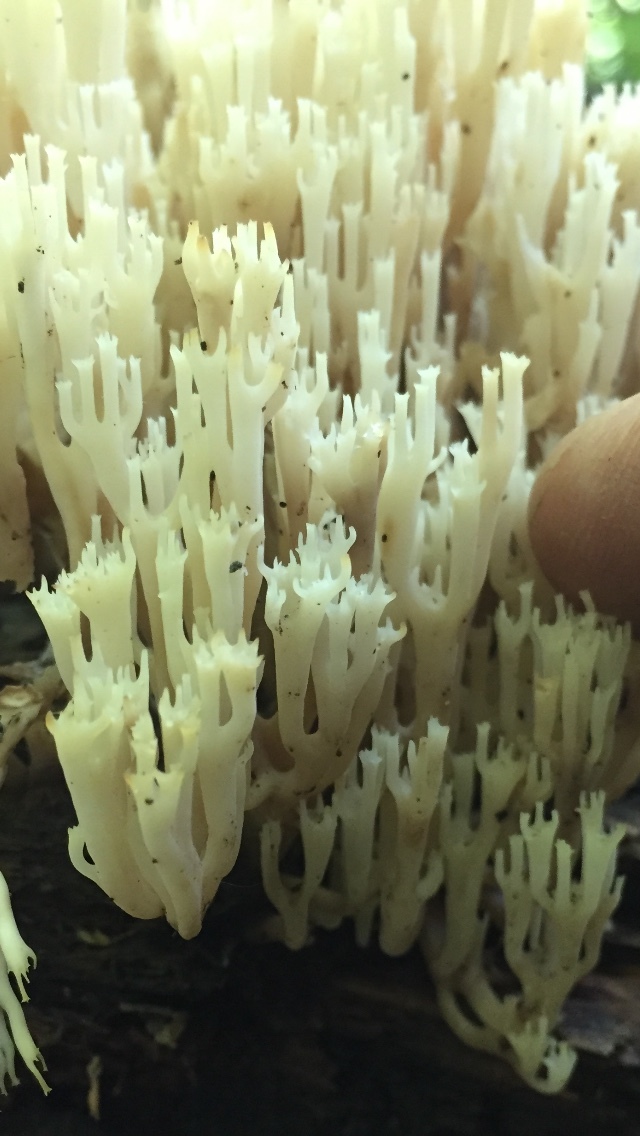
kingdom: Fungi
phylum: Basidiomycota
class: Agaricomycetes
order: Russulales
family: Auriscalpiaceae
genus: Artomyces
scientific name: Artomyces pyxidatus
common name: Crown-tipped coral fungus
